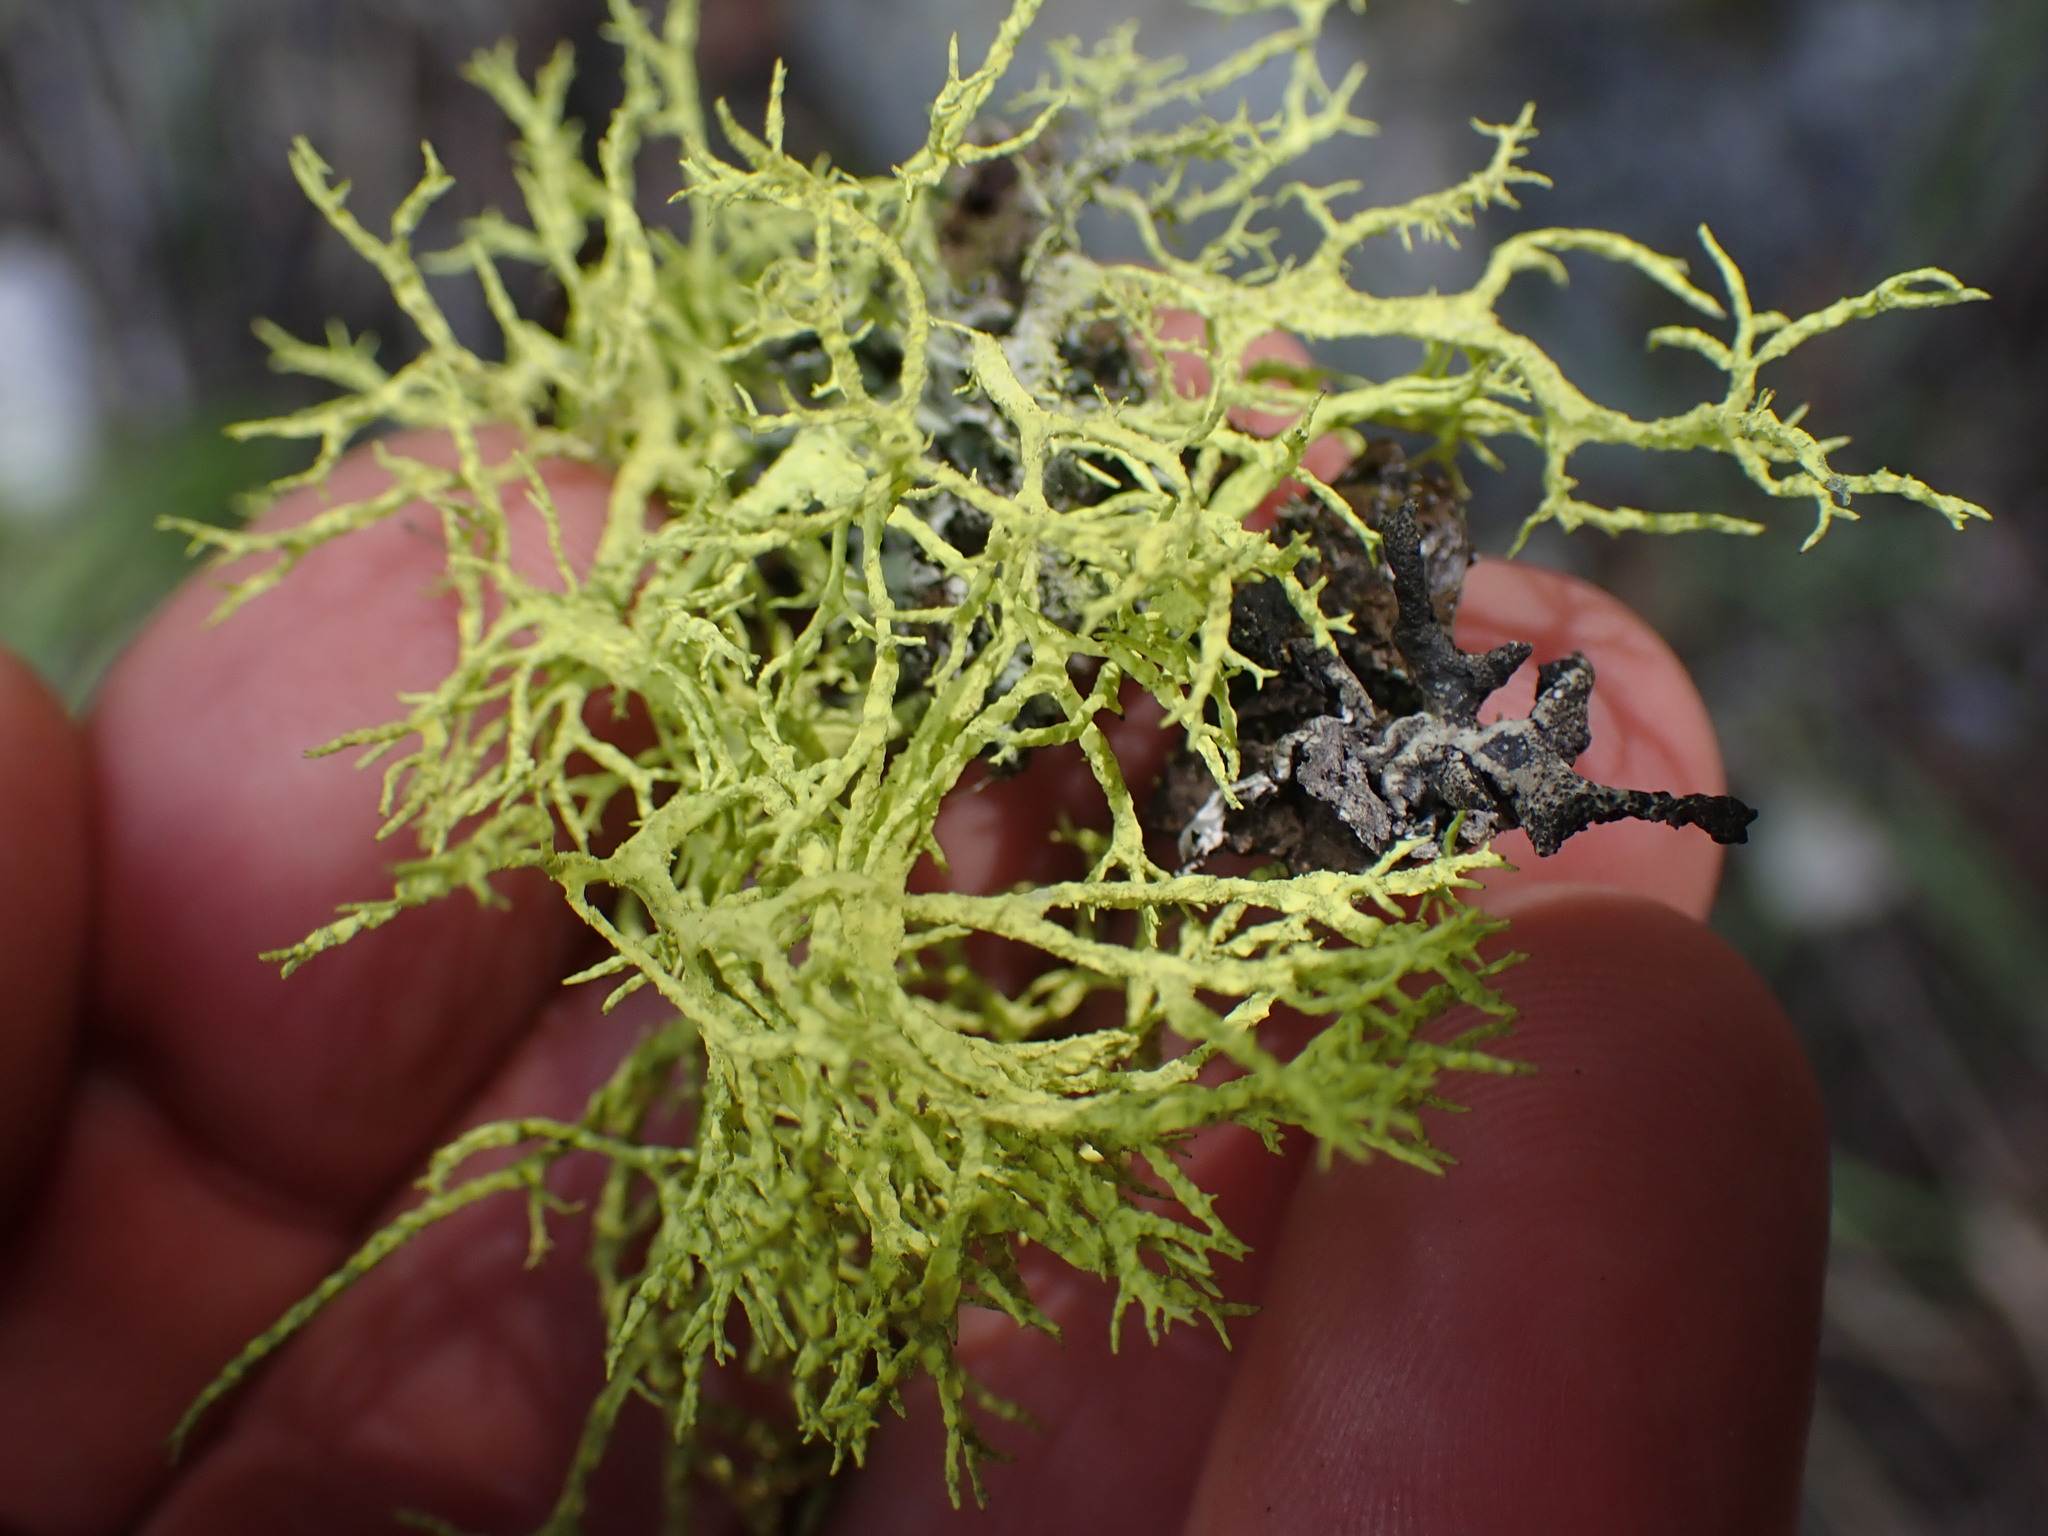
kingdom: Fungi
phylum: Ascomycota
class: Lecanoromycetes
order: Lecanorales
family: Parmeliaceae
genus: Letharia
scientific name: Letharia vulpina
